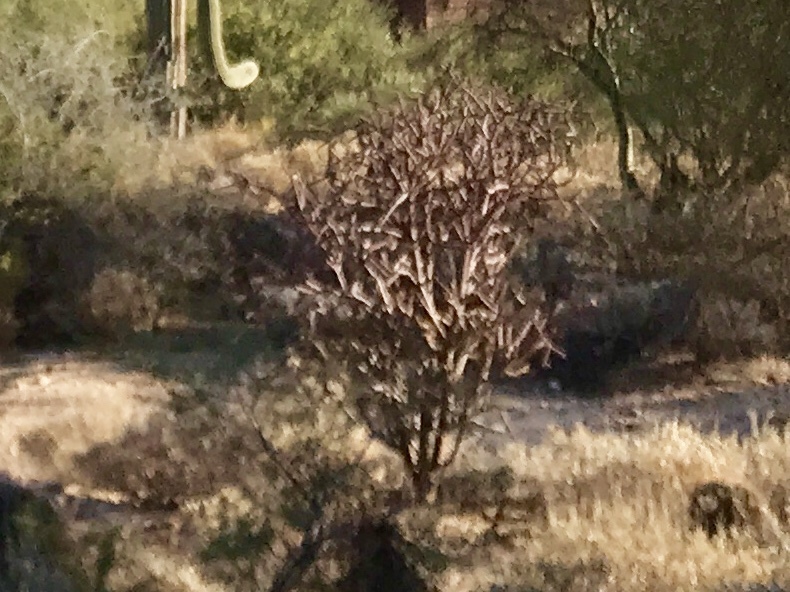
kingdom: Plantae
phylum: Tracheophyta
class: Magnoliopsida
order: Caryophyllales
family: Cactaceae
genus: Cylindropuntia
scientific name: Cylindropuntia thurberi
